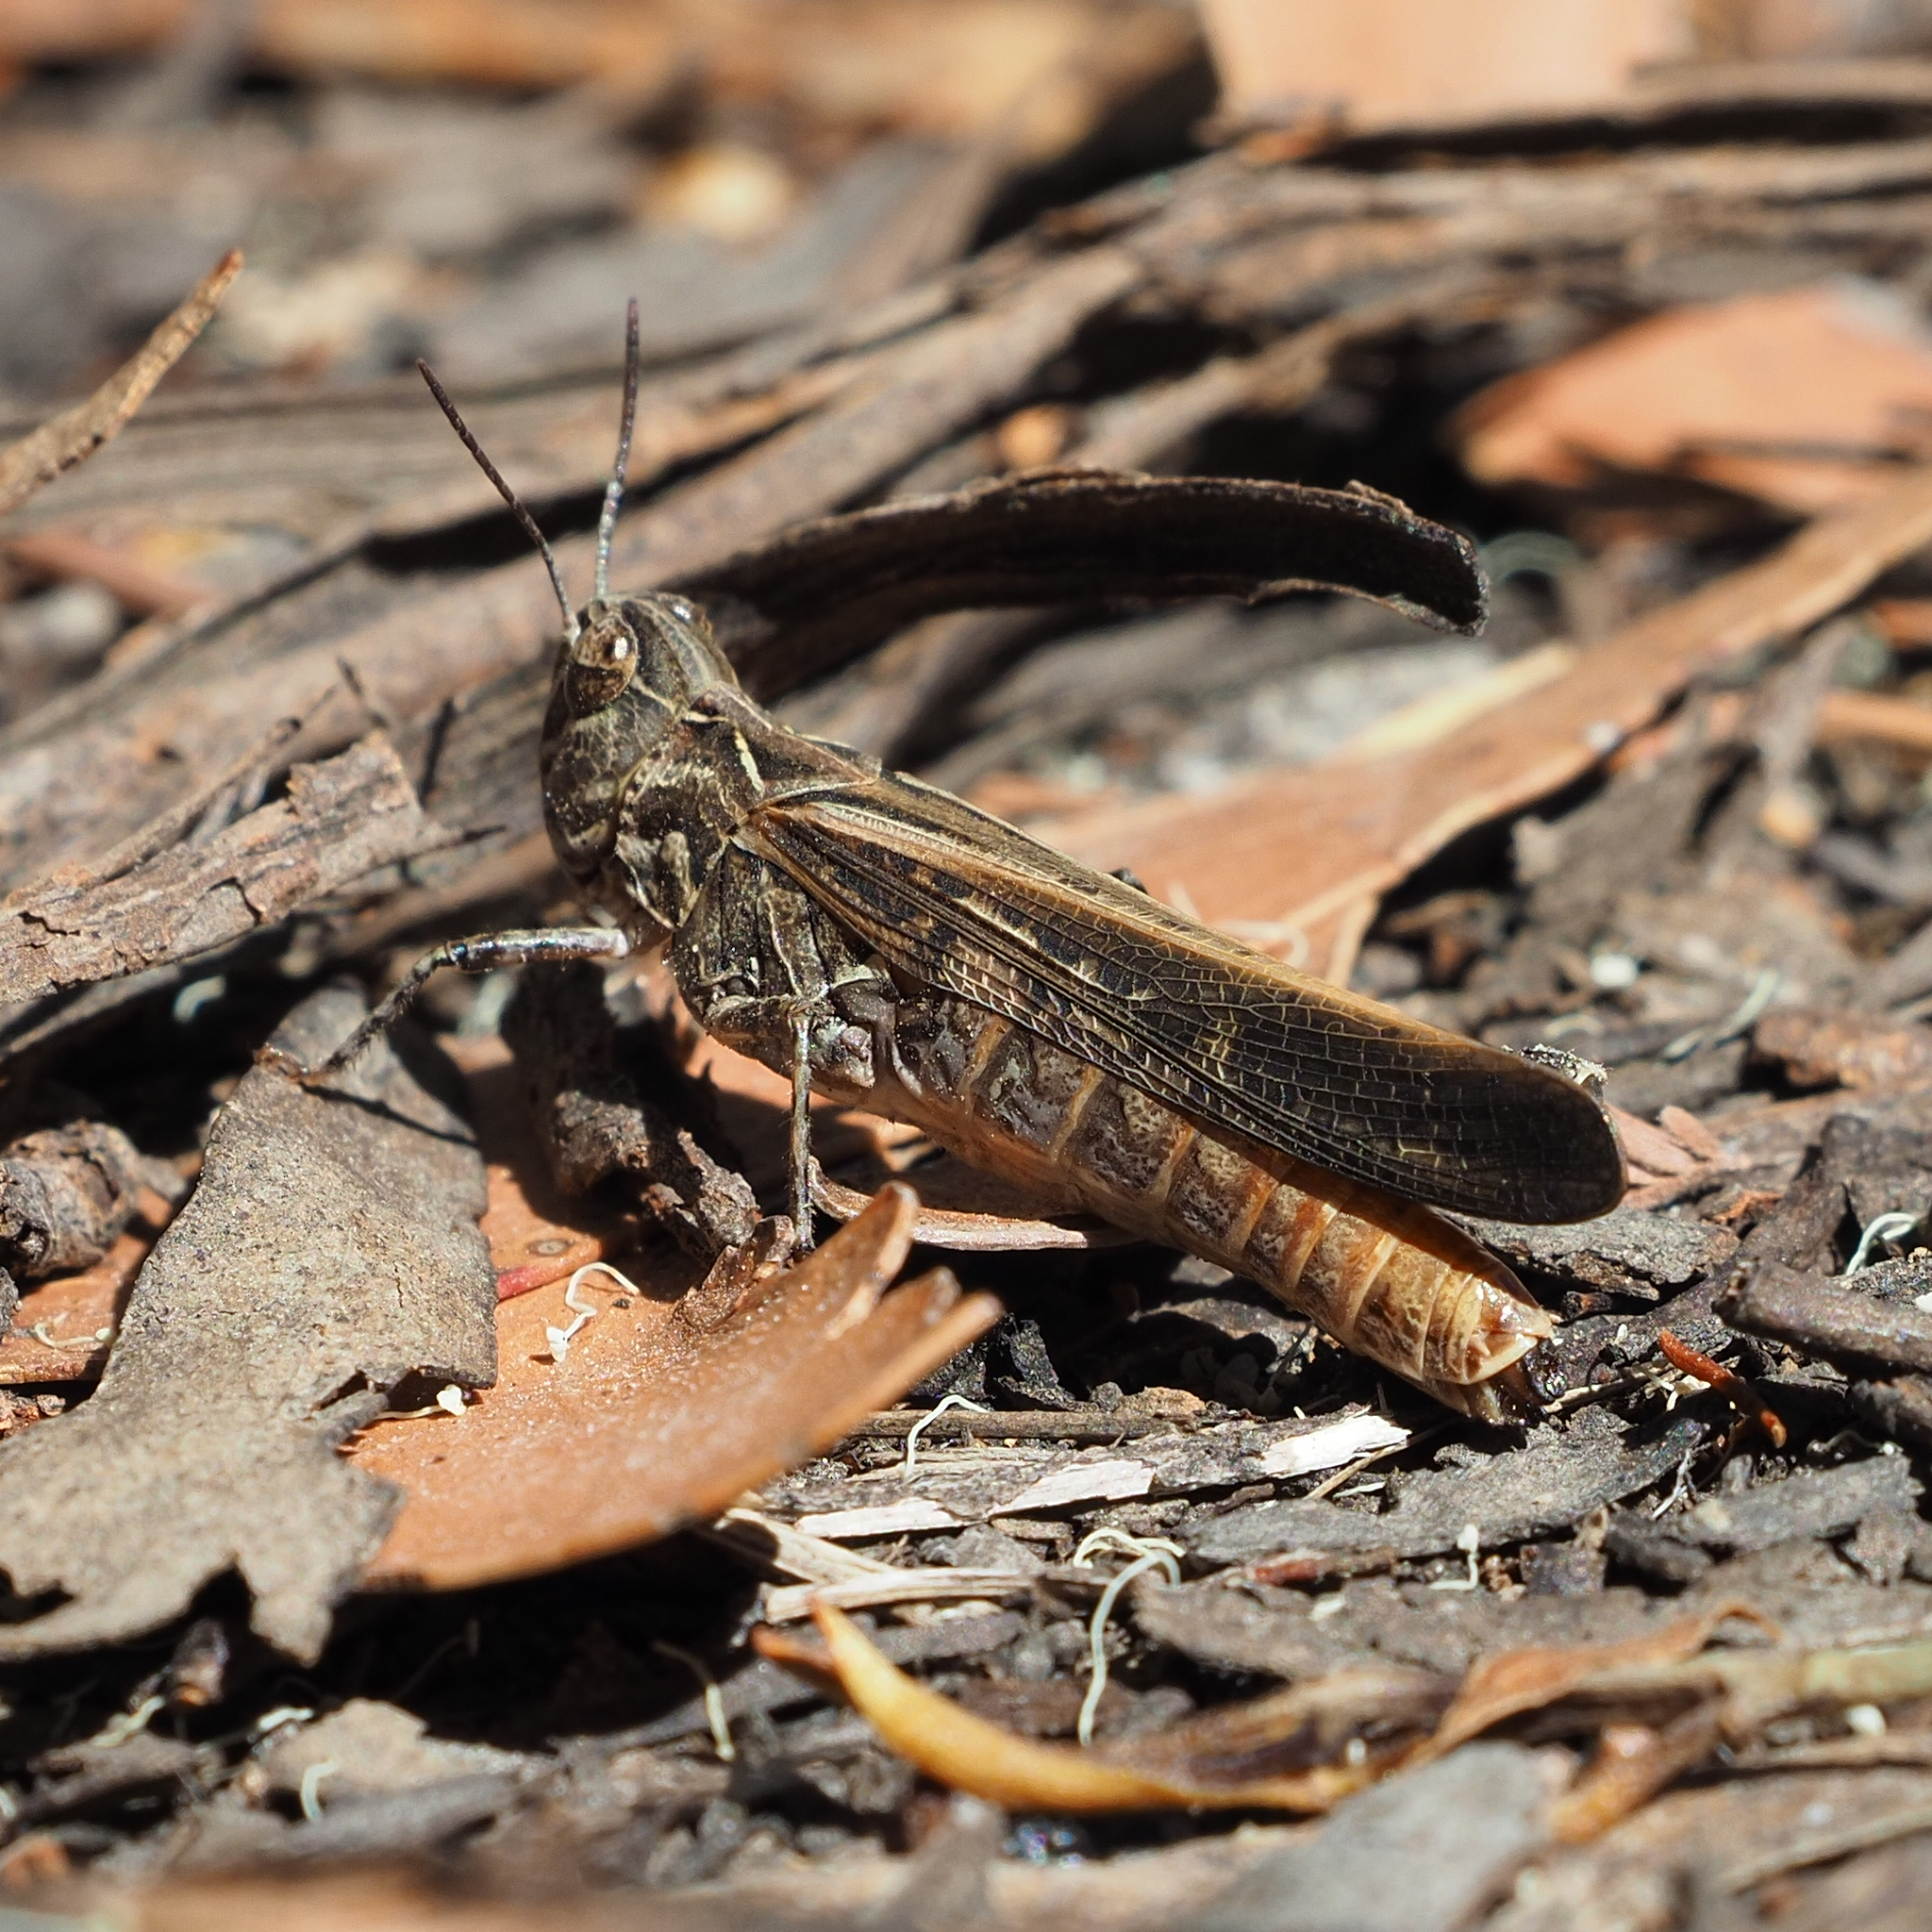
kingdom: Animalia
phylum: Arthropoda
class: Insecta
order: Orthoptera
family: Acrididae
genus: Austroicetes
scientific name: Austroicetes vulgaris
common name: Southeastern austroicetes
